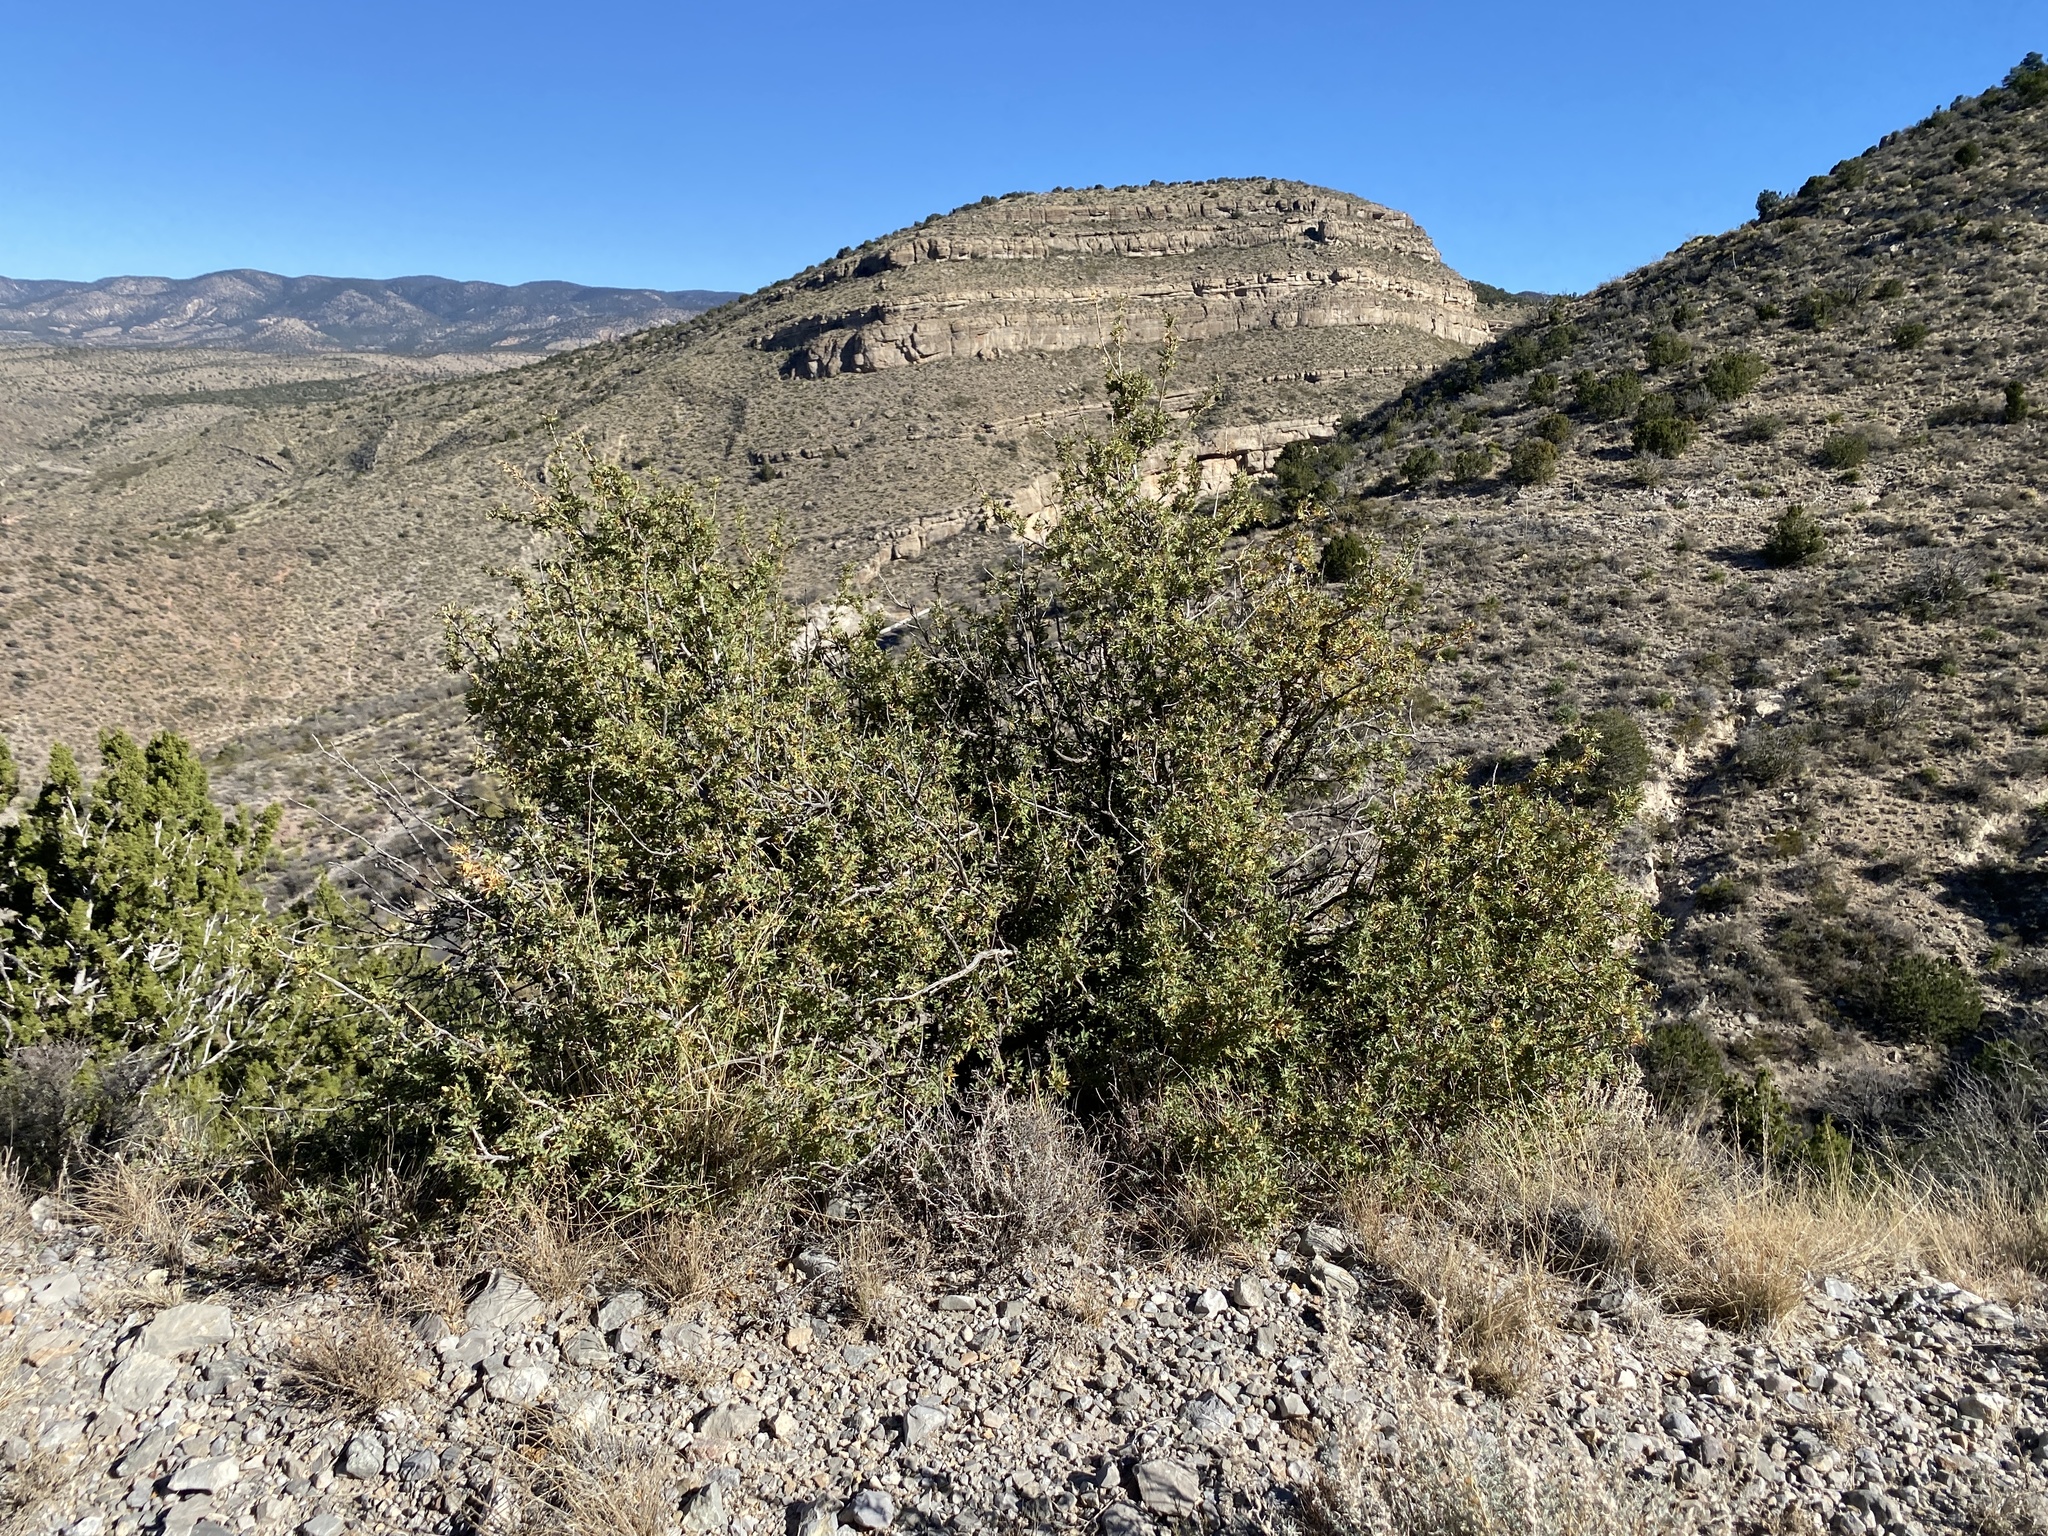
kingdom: Plantae
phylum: Tracheophyta
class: Magnoliopsida
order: Ranunculales
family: Berberidaceae
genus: Alloberberis
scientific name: Alloberberis haematocarpa
